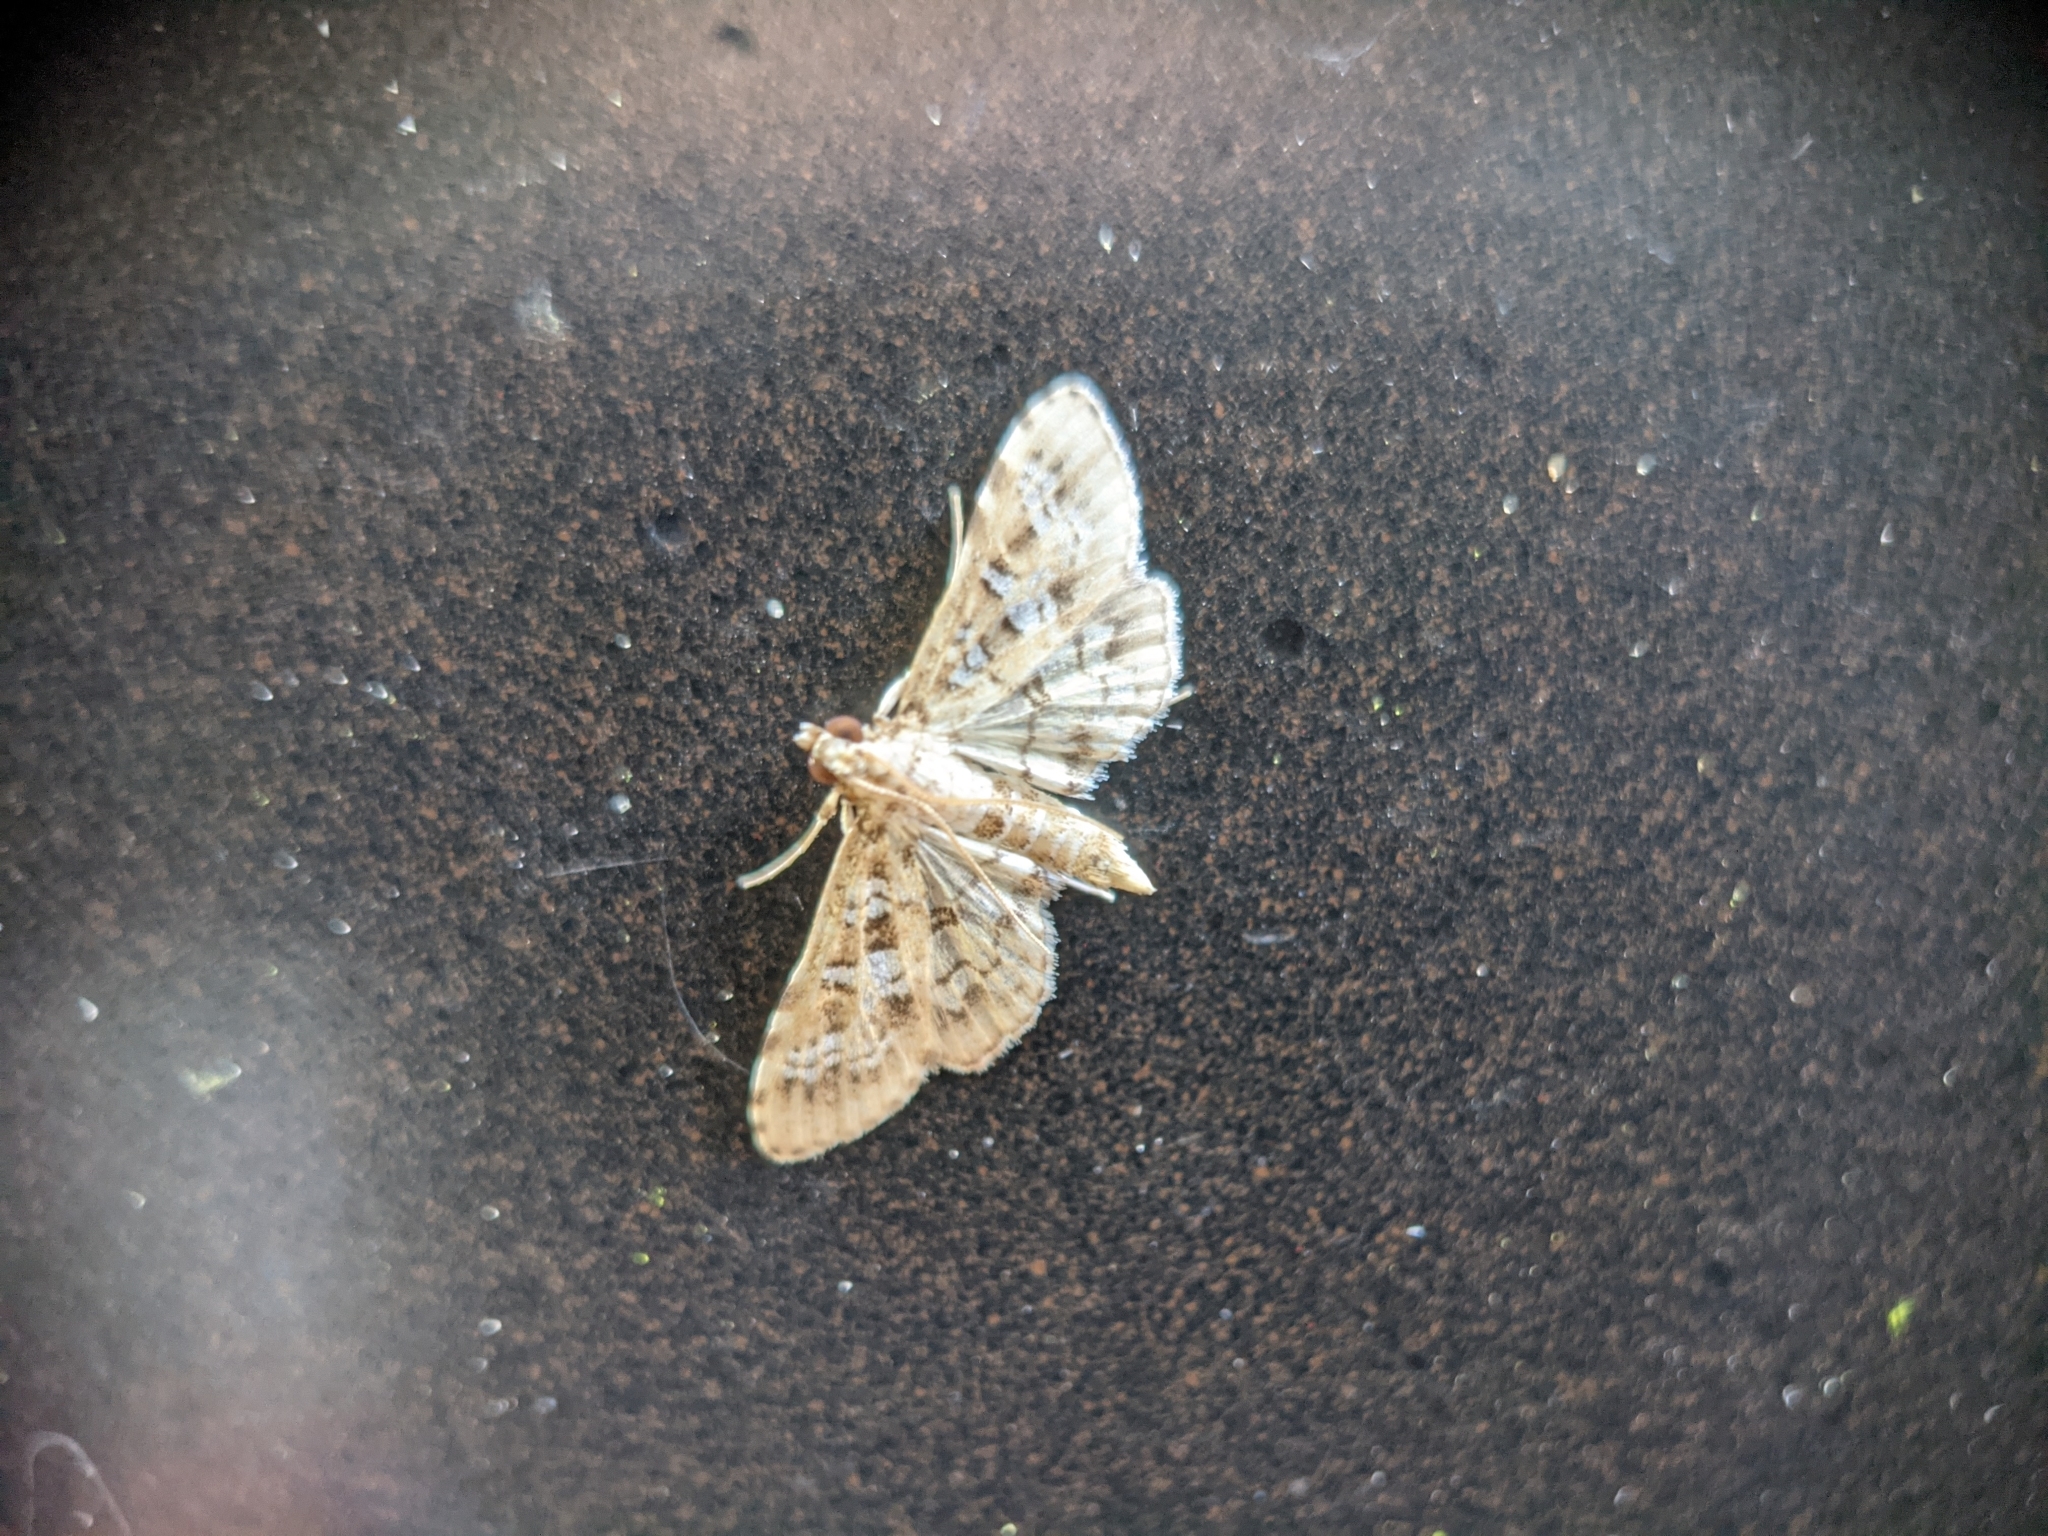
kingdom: Animalia
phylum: Arthropoda
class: Insecta
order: Lepidoptera
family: Crambidae
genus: Samea
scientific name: Samea multiplicalis
